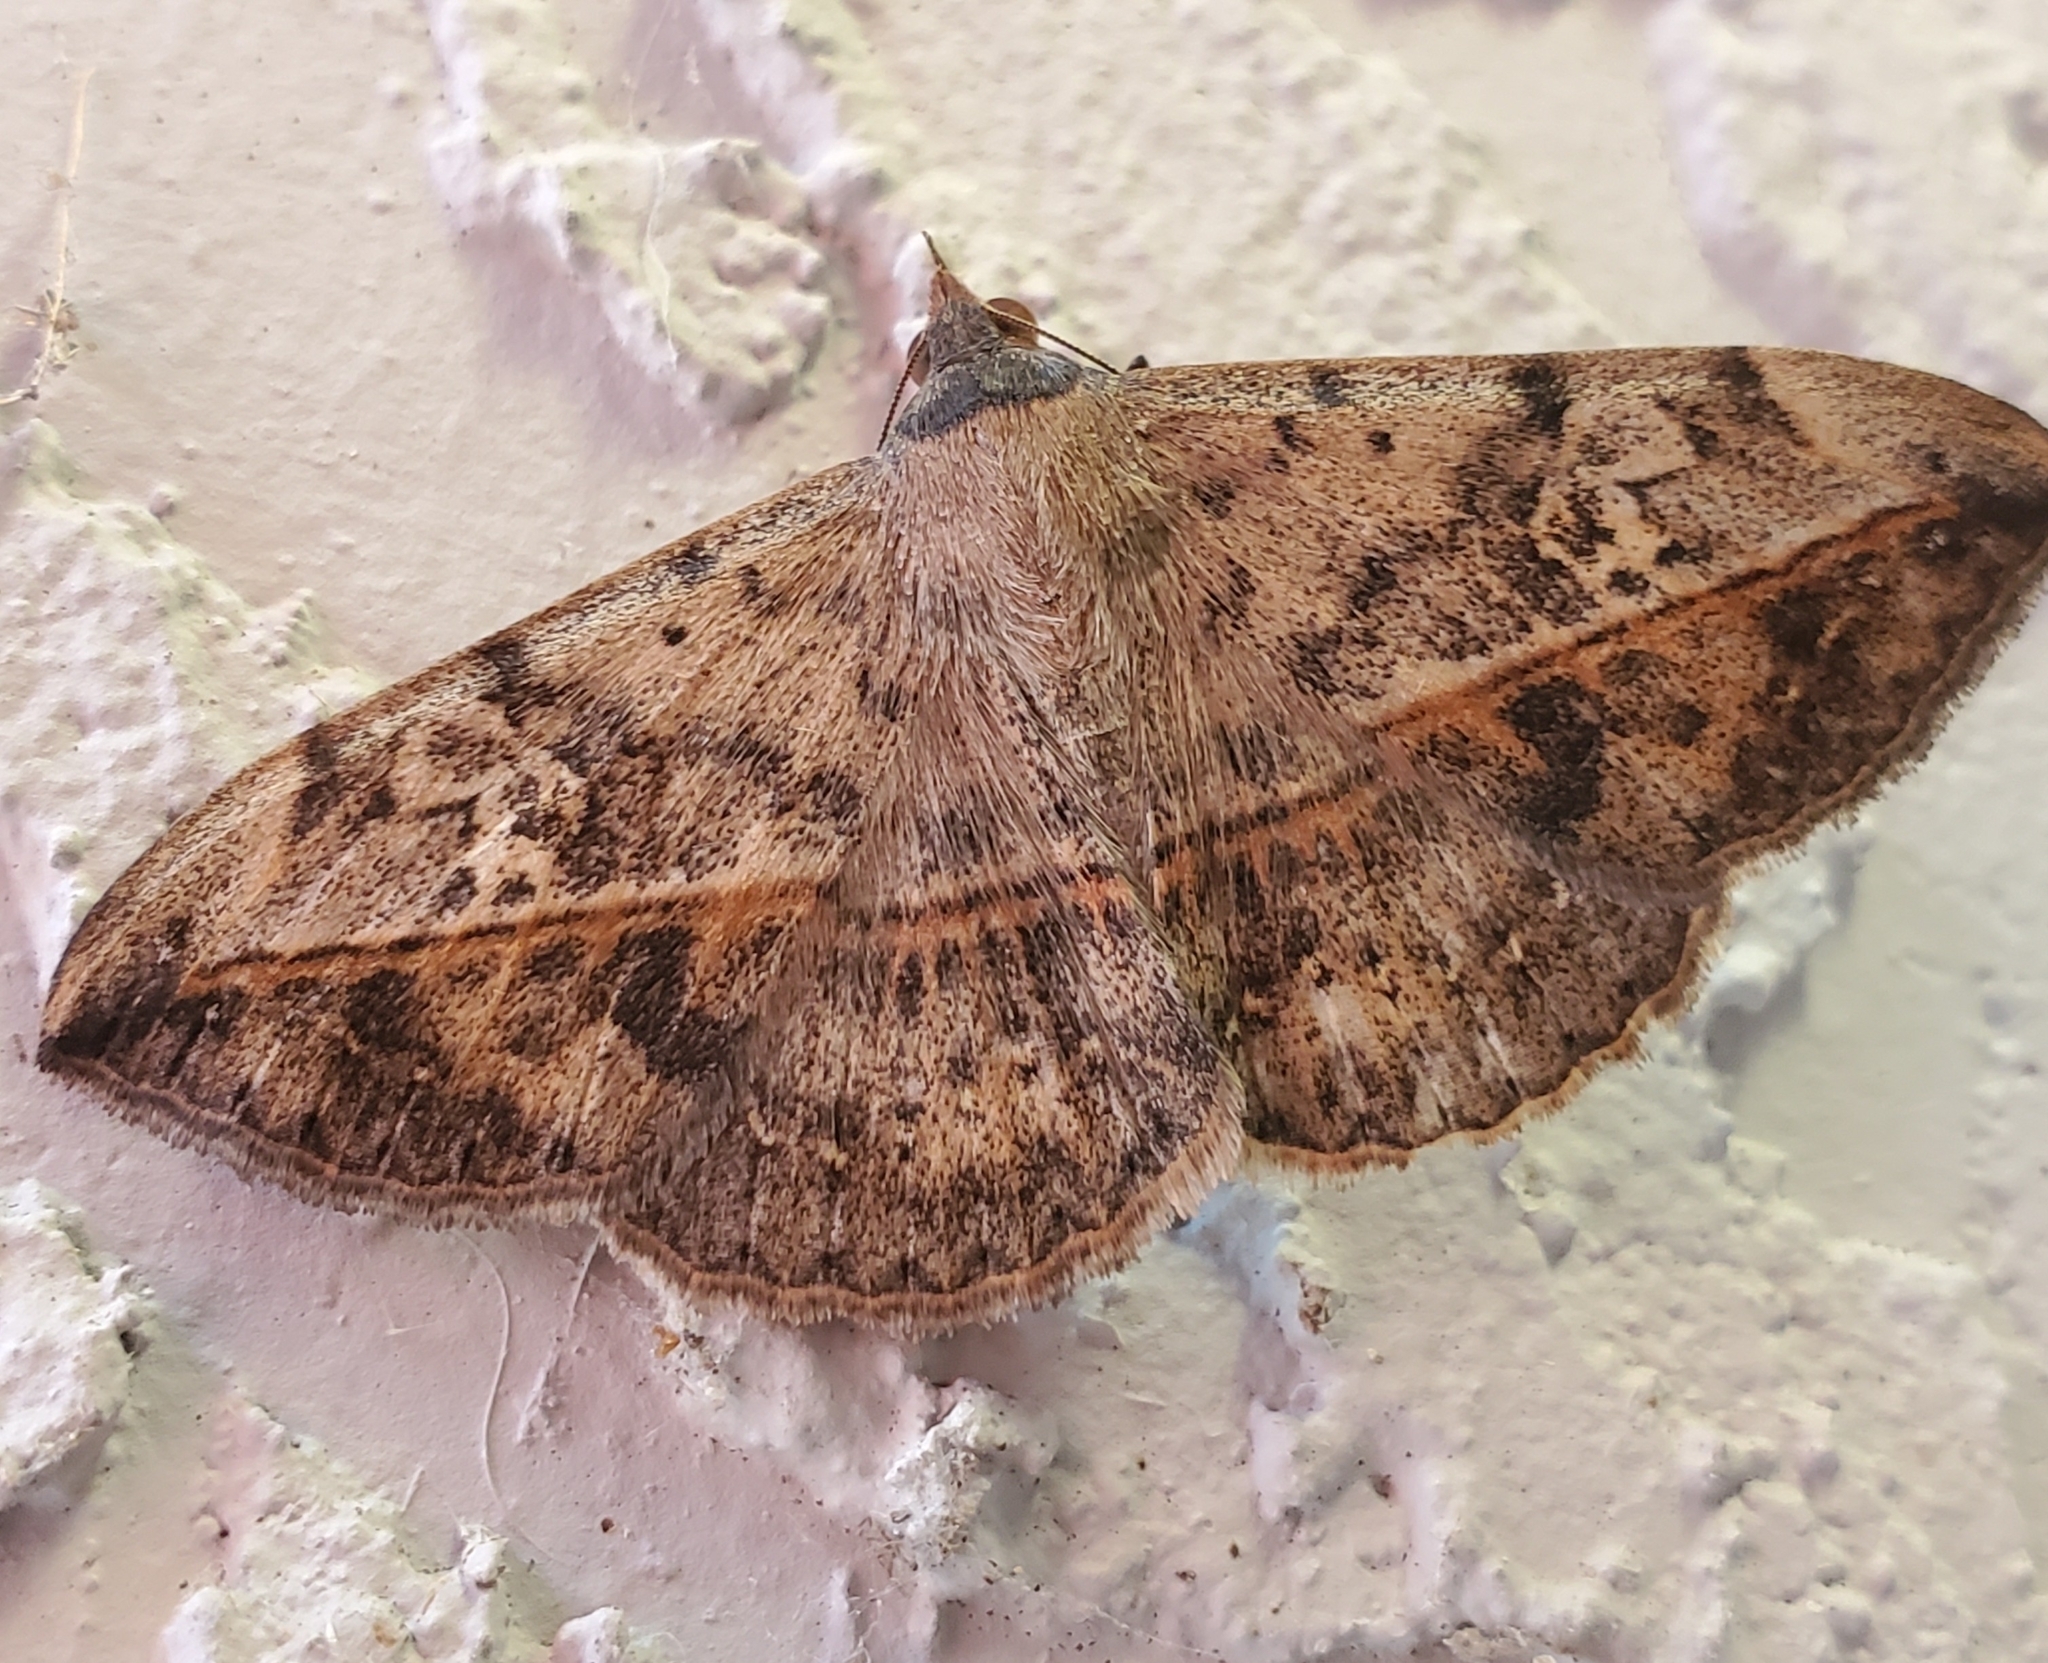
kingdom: Animalia
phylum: Arthropoda
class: Insecta
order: Lepidoptera
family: Erebidae
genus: Anticarsia
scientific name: Anticarsia gemmatalis
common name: Cutworm moth
